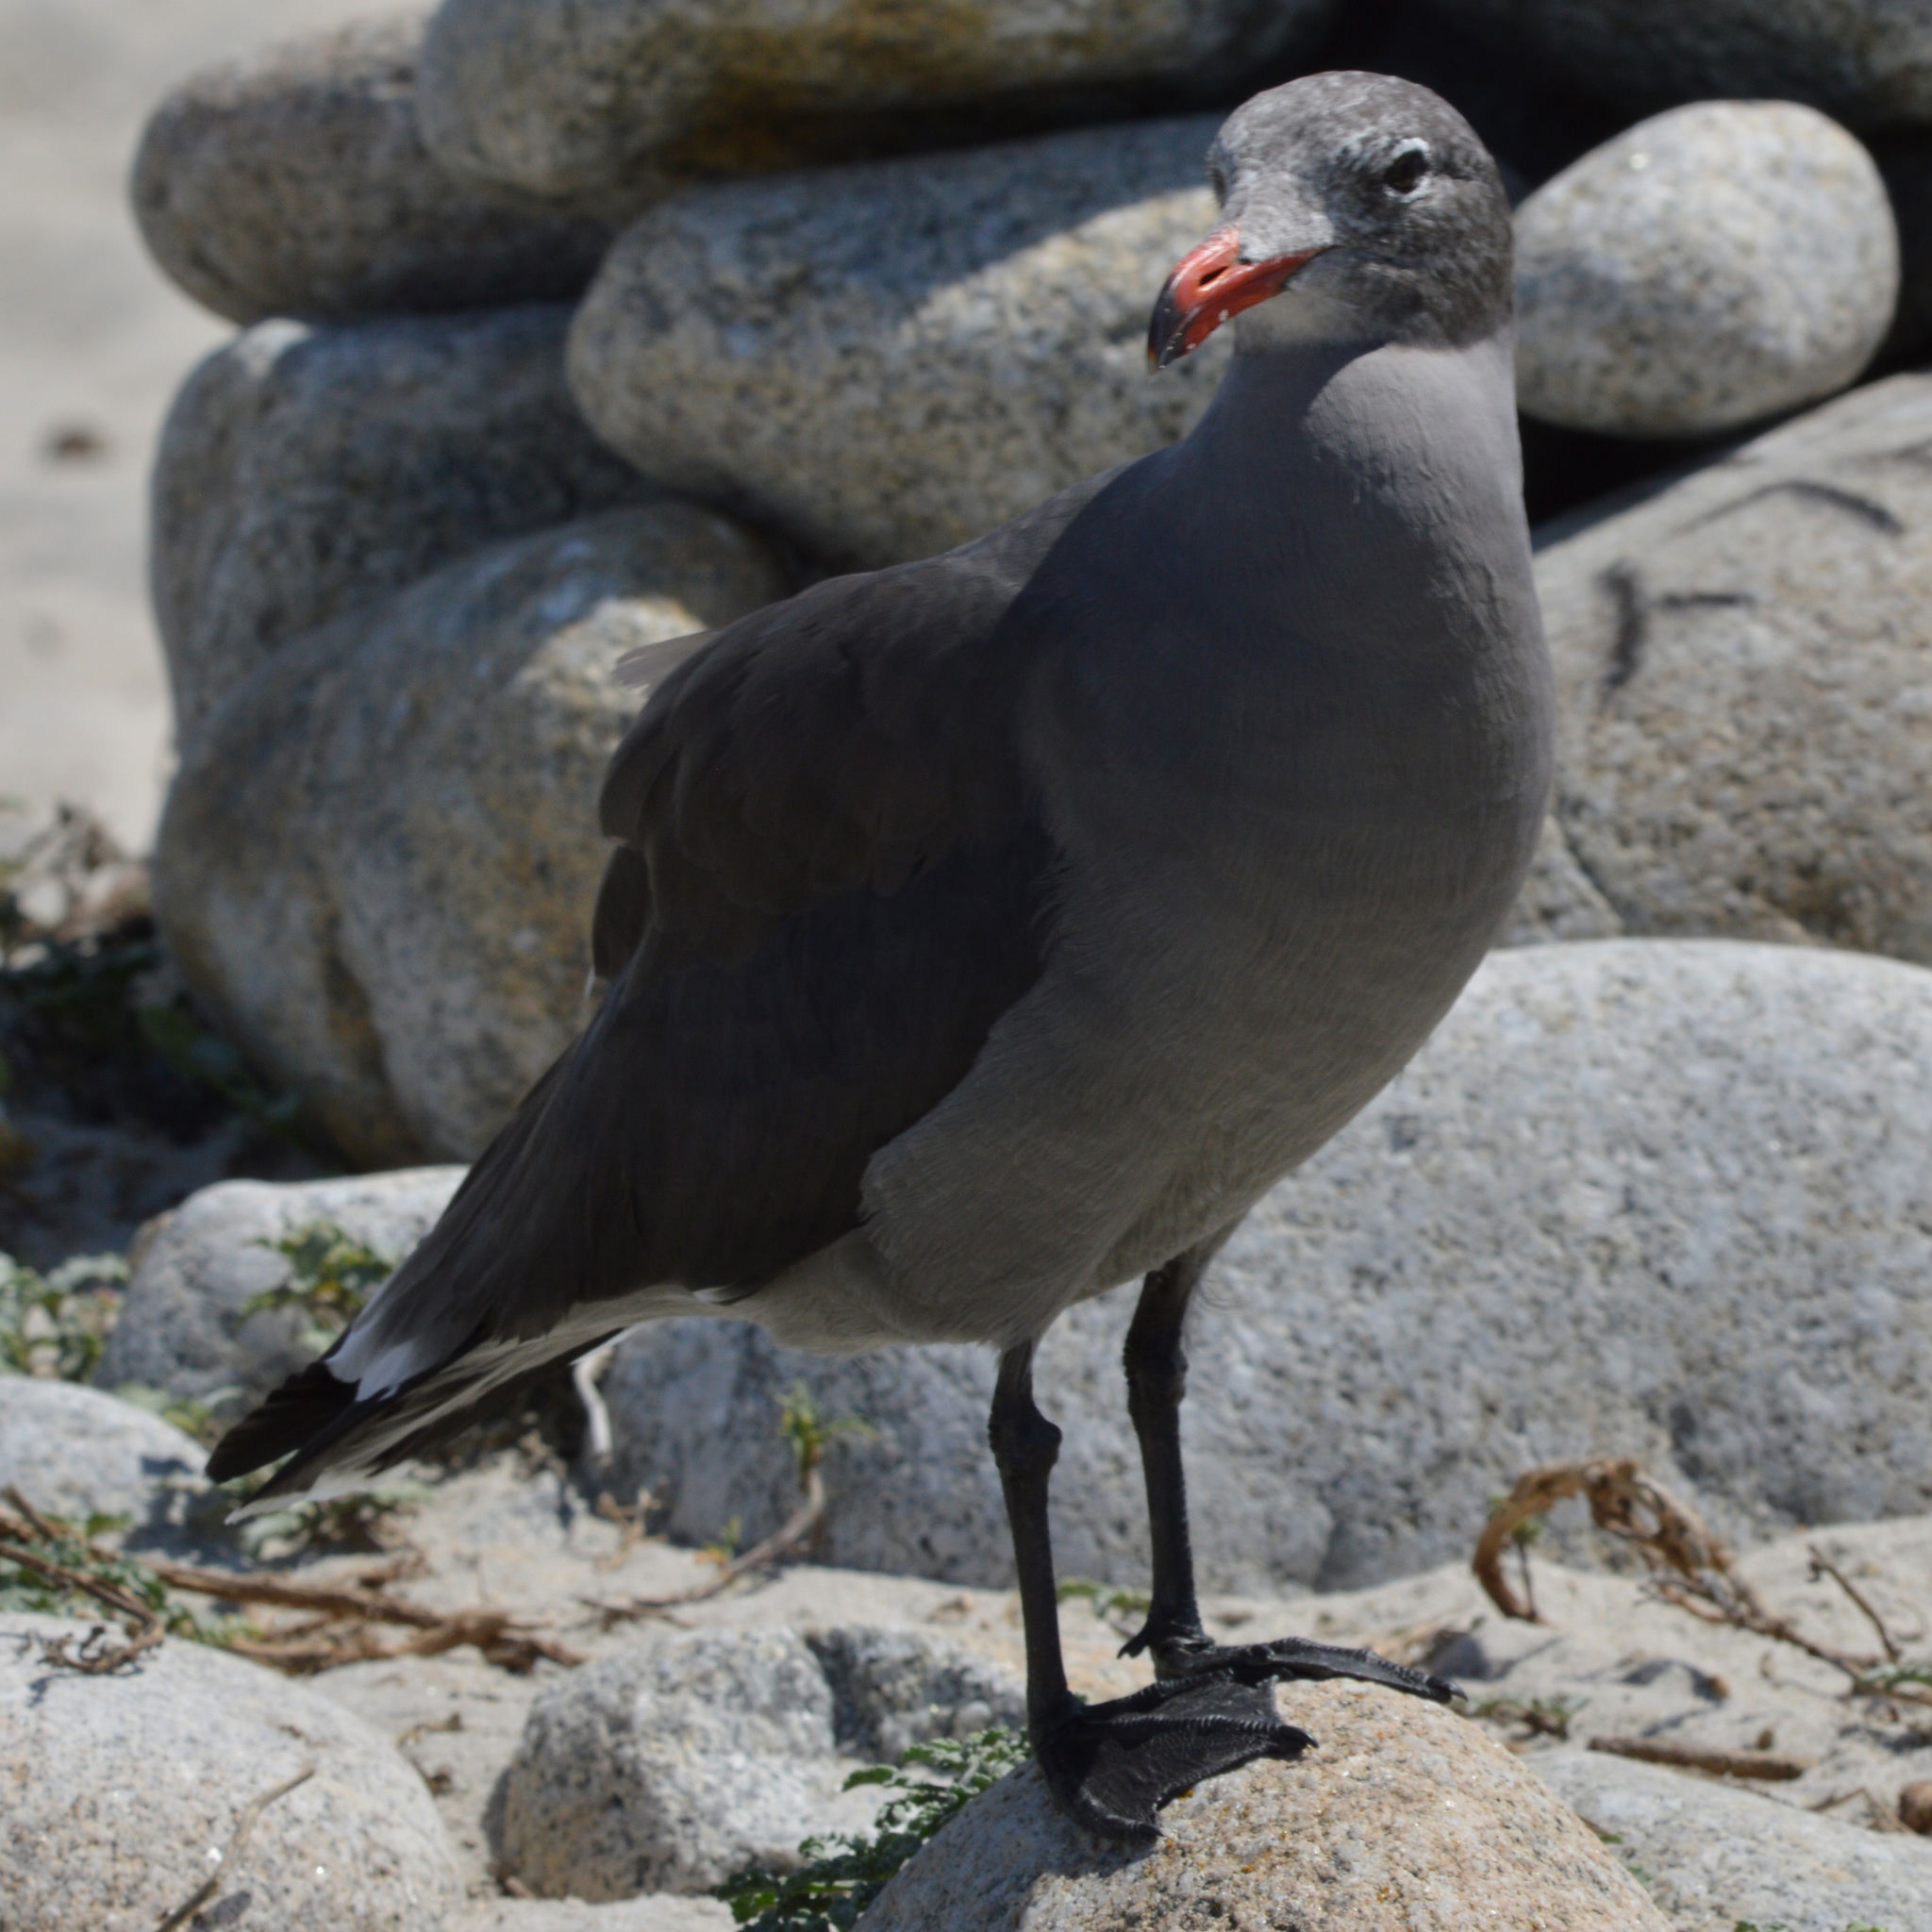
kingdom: Animalia
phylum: Chordata
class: Aves
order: Charadriiformes
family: Laridae
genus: Larus
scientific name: Larus heermanni
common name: Heermann's gull
